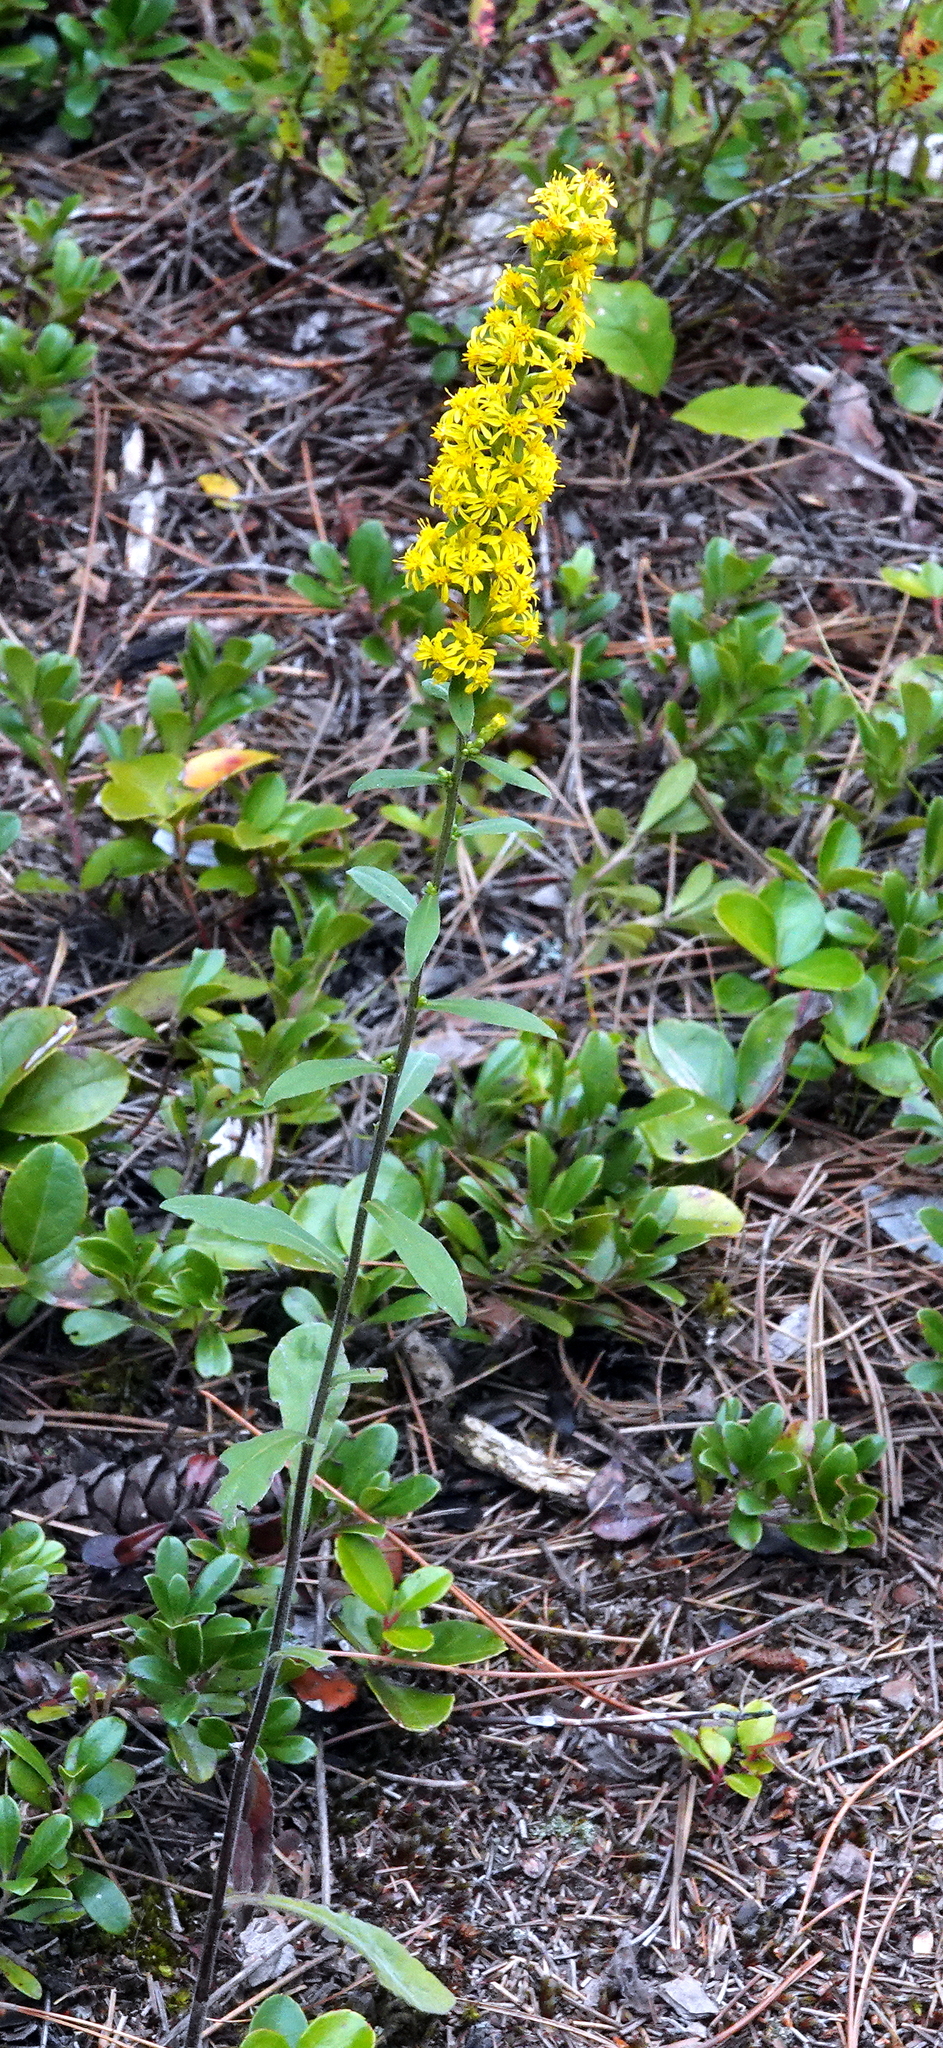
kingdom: Plantae
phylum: Tracheophyta
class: Magnoliopsida
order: Asterales
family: Asteraceae
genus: Solidago
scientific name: Solidago hispida
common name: Hairy goldenrod
